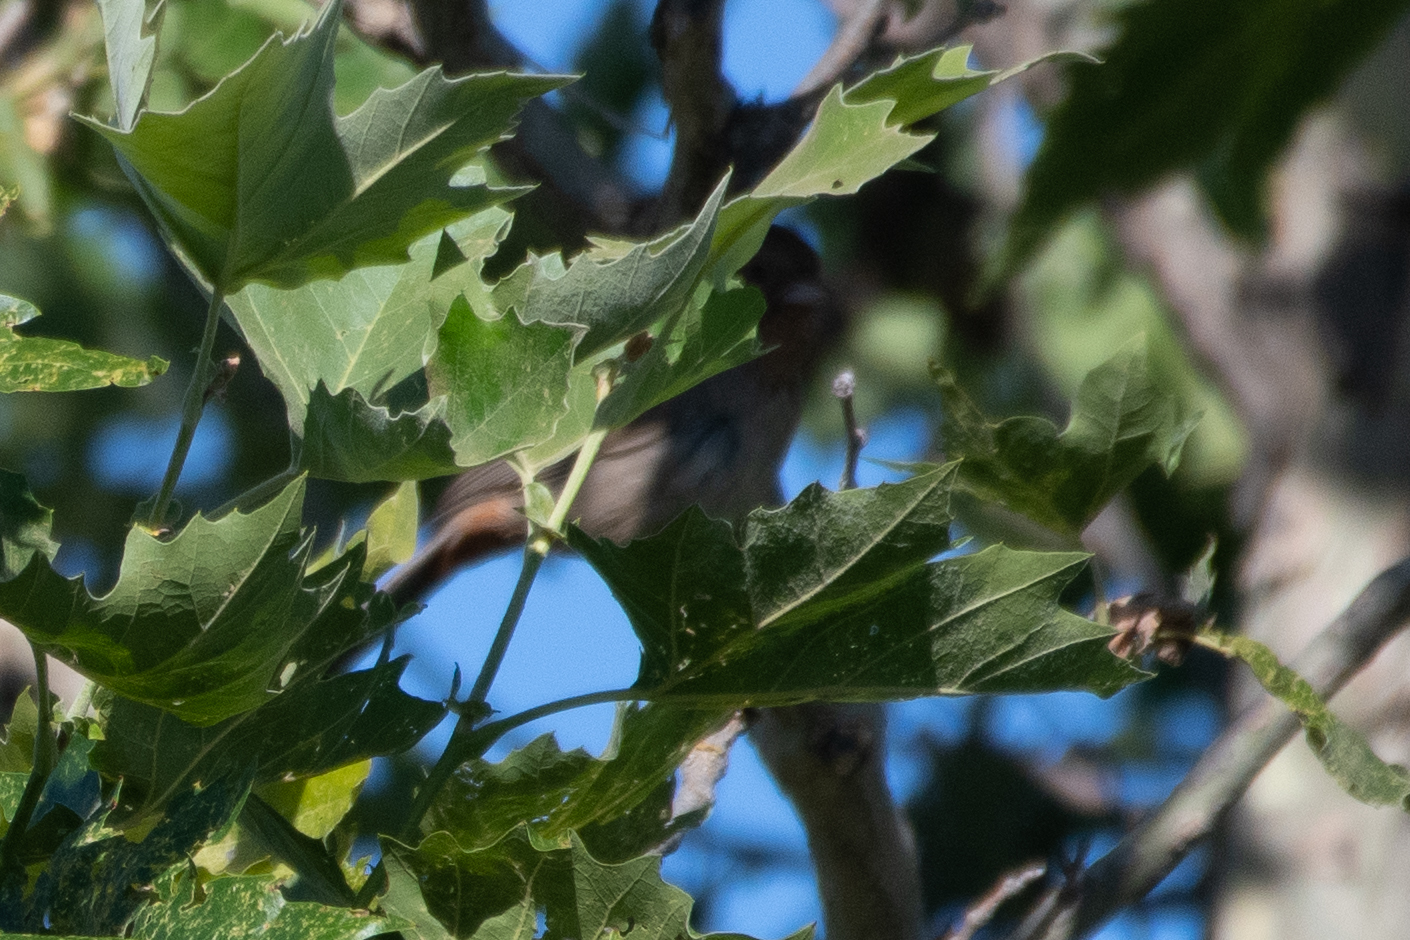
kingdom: Animalia
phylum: Chordata
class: Aves
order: Passeriformes
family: Passerellidae
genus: Melozone
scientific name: Melozone crissalis
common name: California towhee
